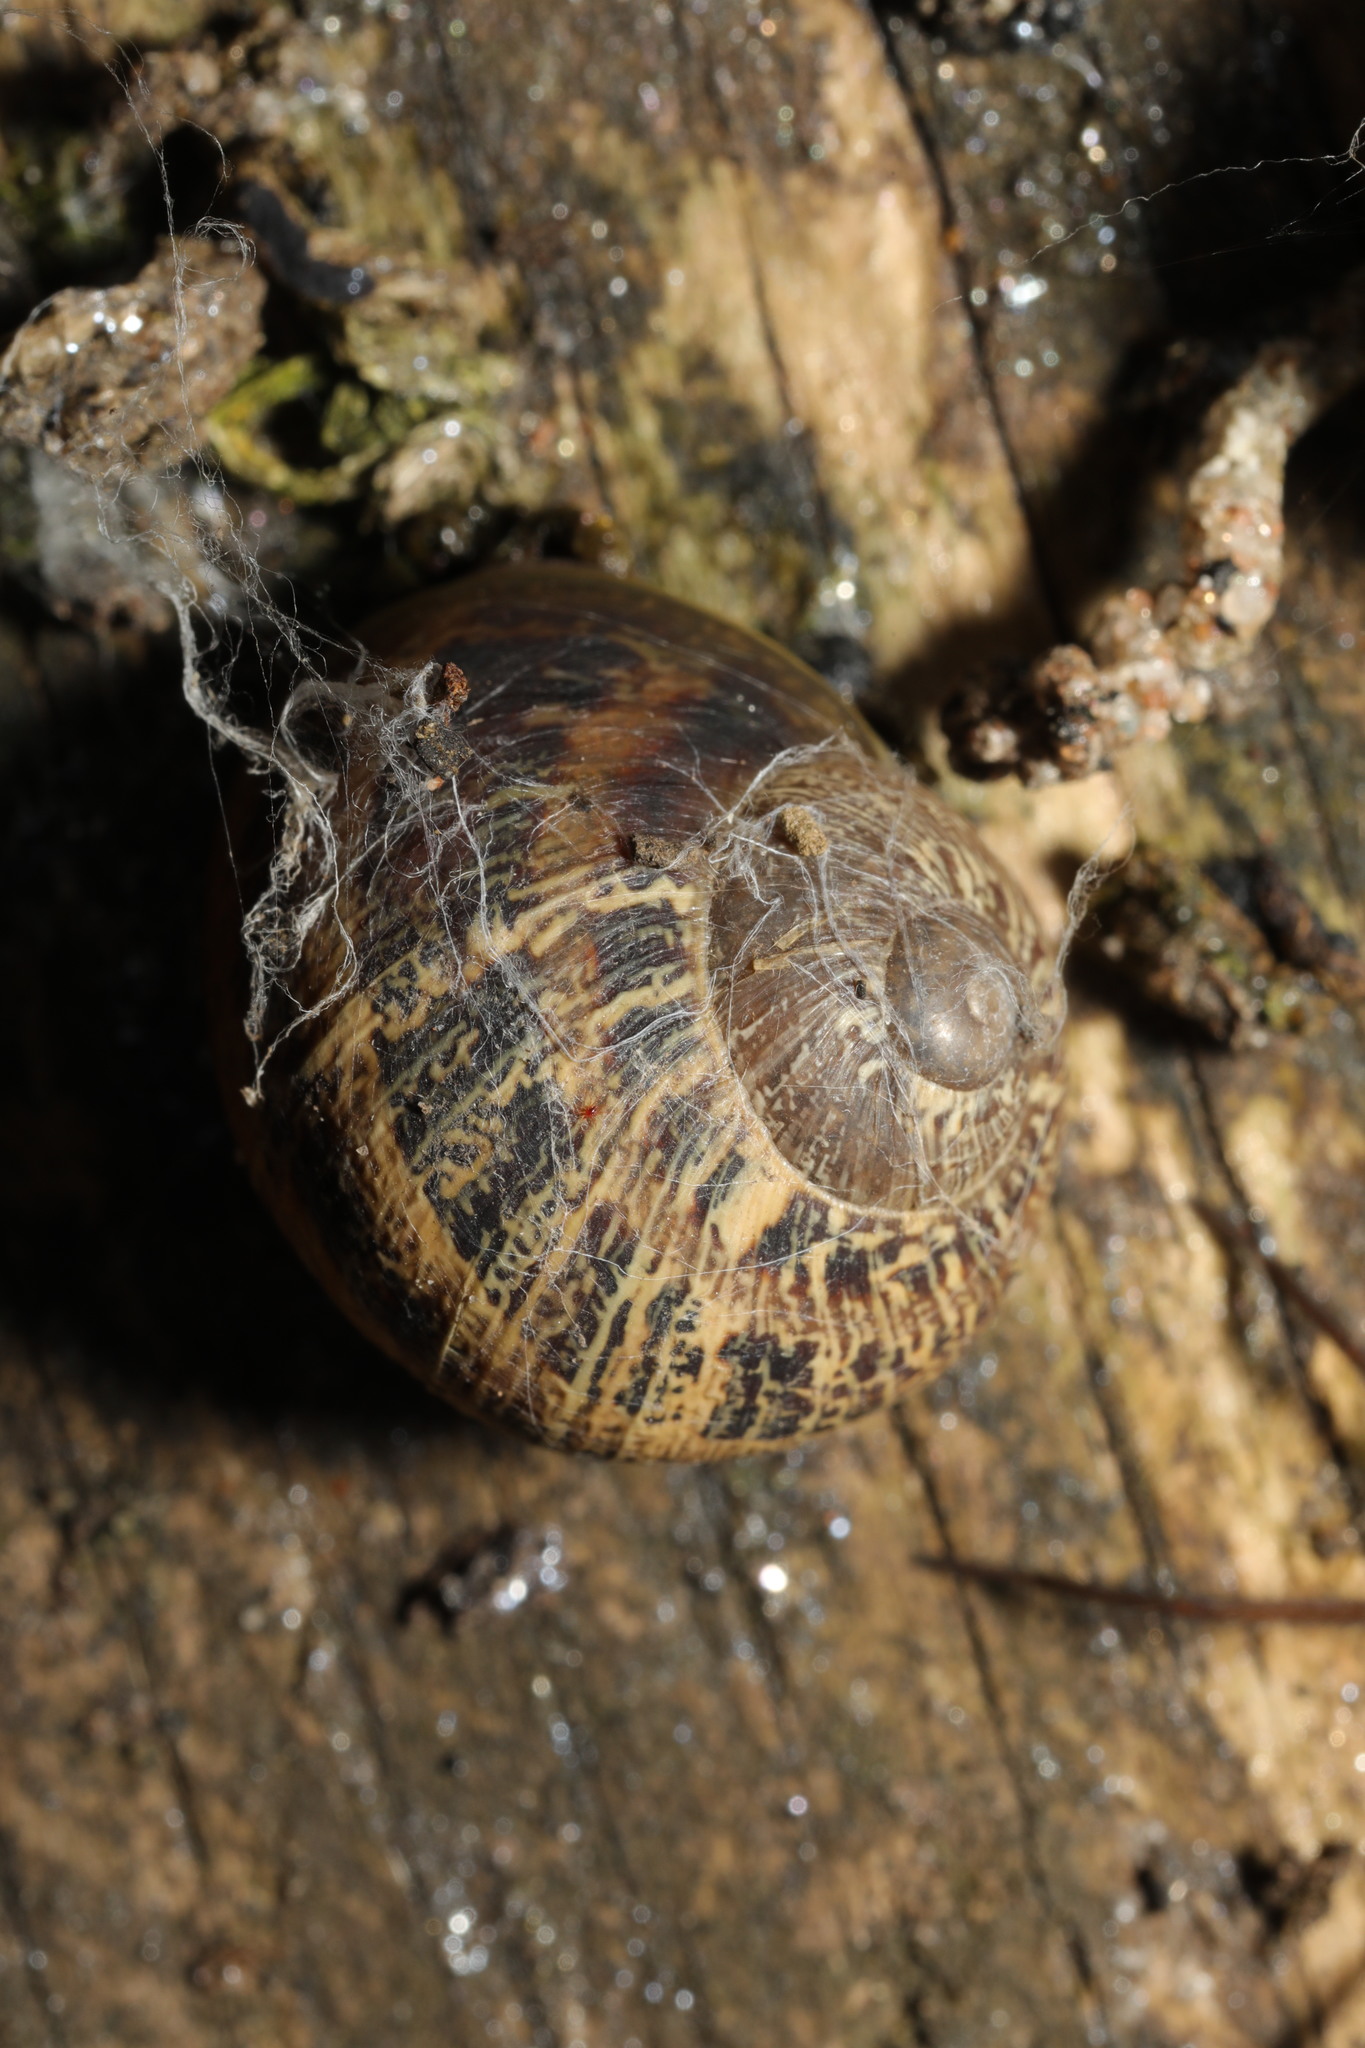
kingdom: Animalia
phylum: Mollusca
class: Gastropoda
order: Stylommatophora
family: Helicidae
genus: Cornu
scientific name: Cornu aspersum
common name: Brown garden snail
